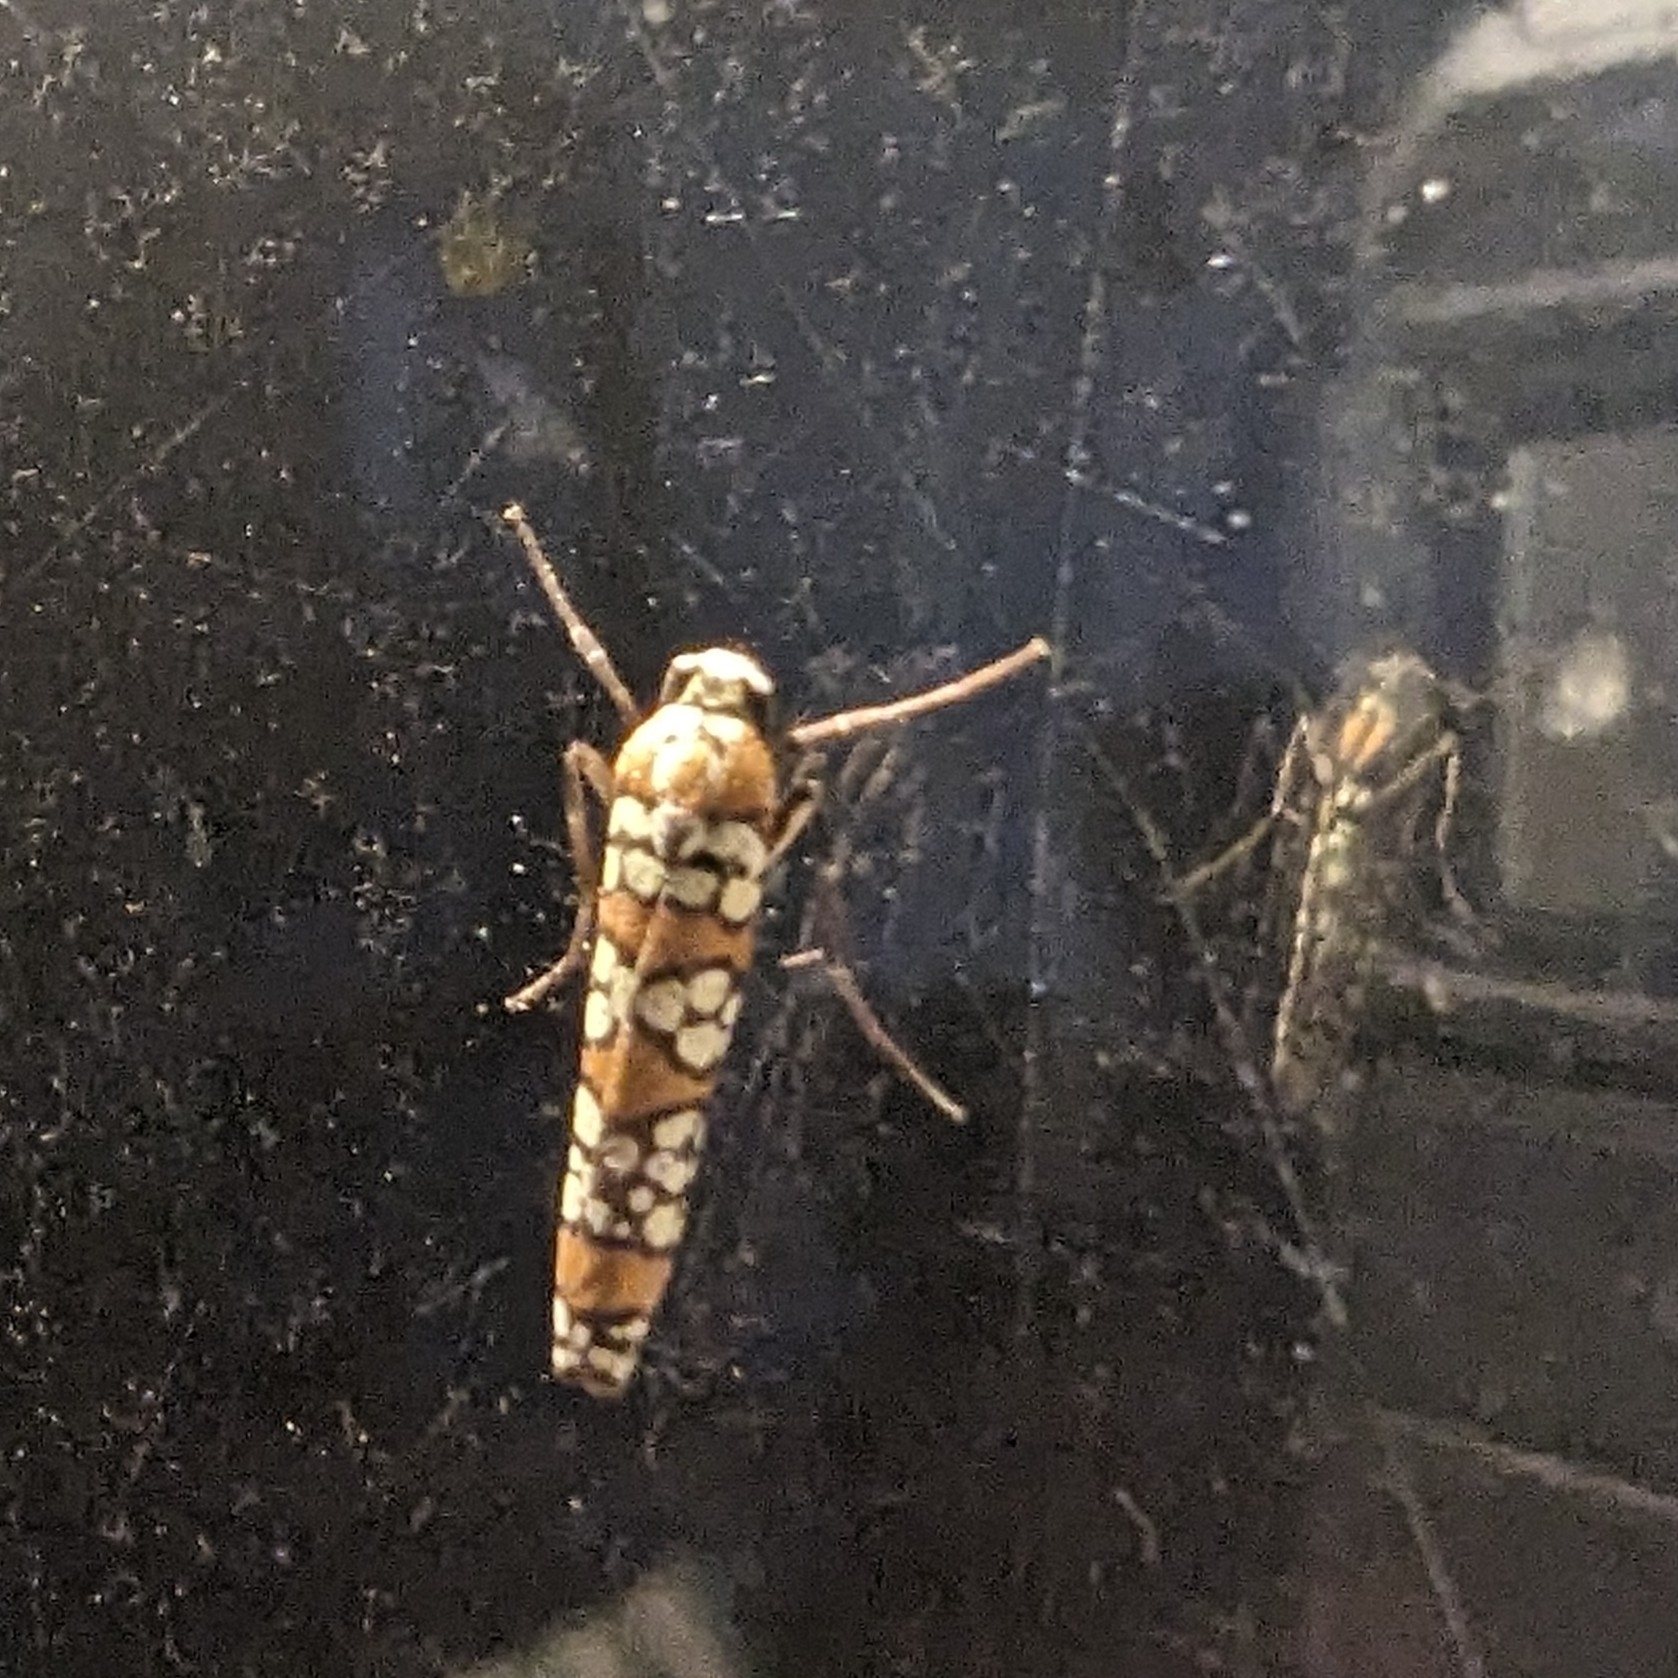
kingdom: Animalia
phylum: Arthropoda
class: Insecta
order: Lepidoptera
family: Attevidae
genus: Atteva
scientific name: Atteva punctella
